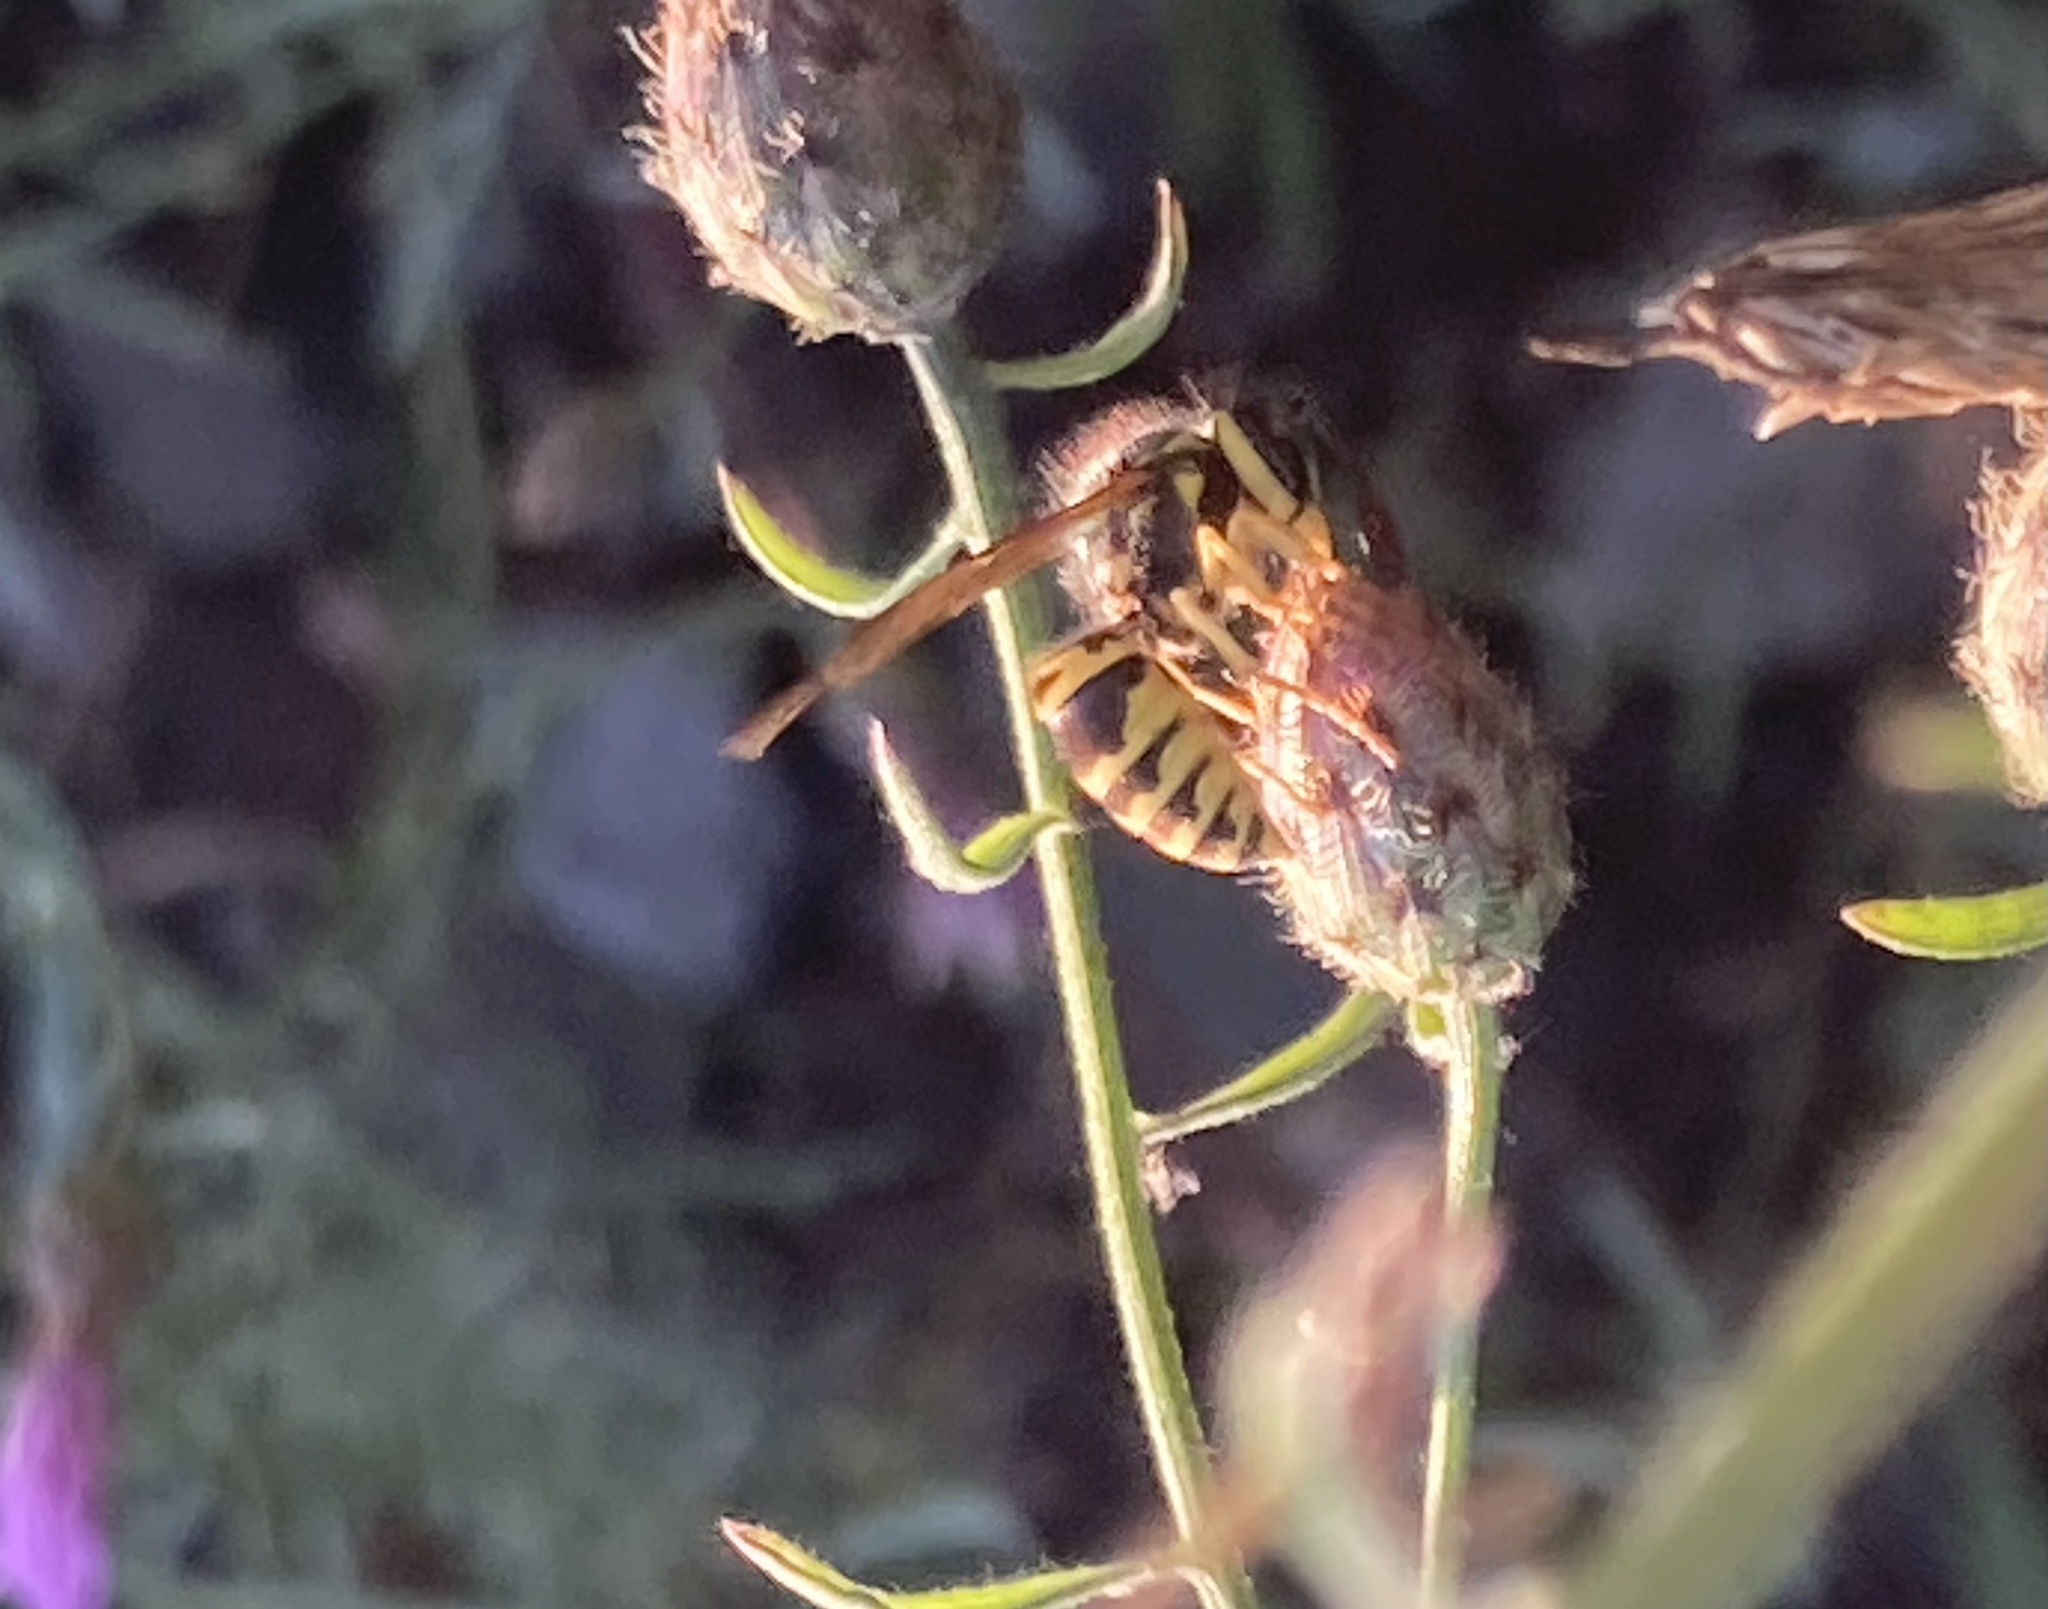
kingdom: Animalia
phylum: Arthropoda
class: Insecta
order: Hymenoptera
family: Vespidae
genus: Vespula
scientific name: Vespula maculifrons
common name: Eastern yellowjacket
